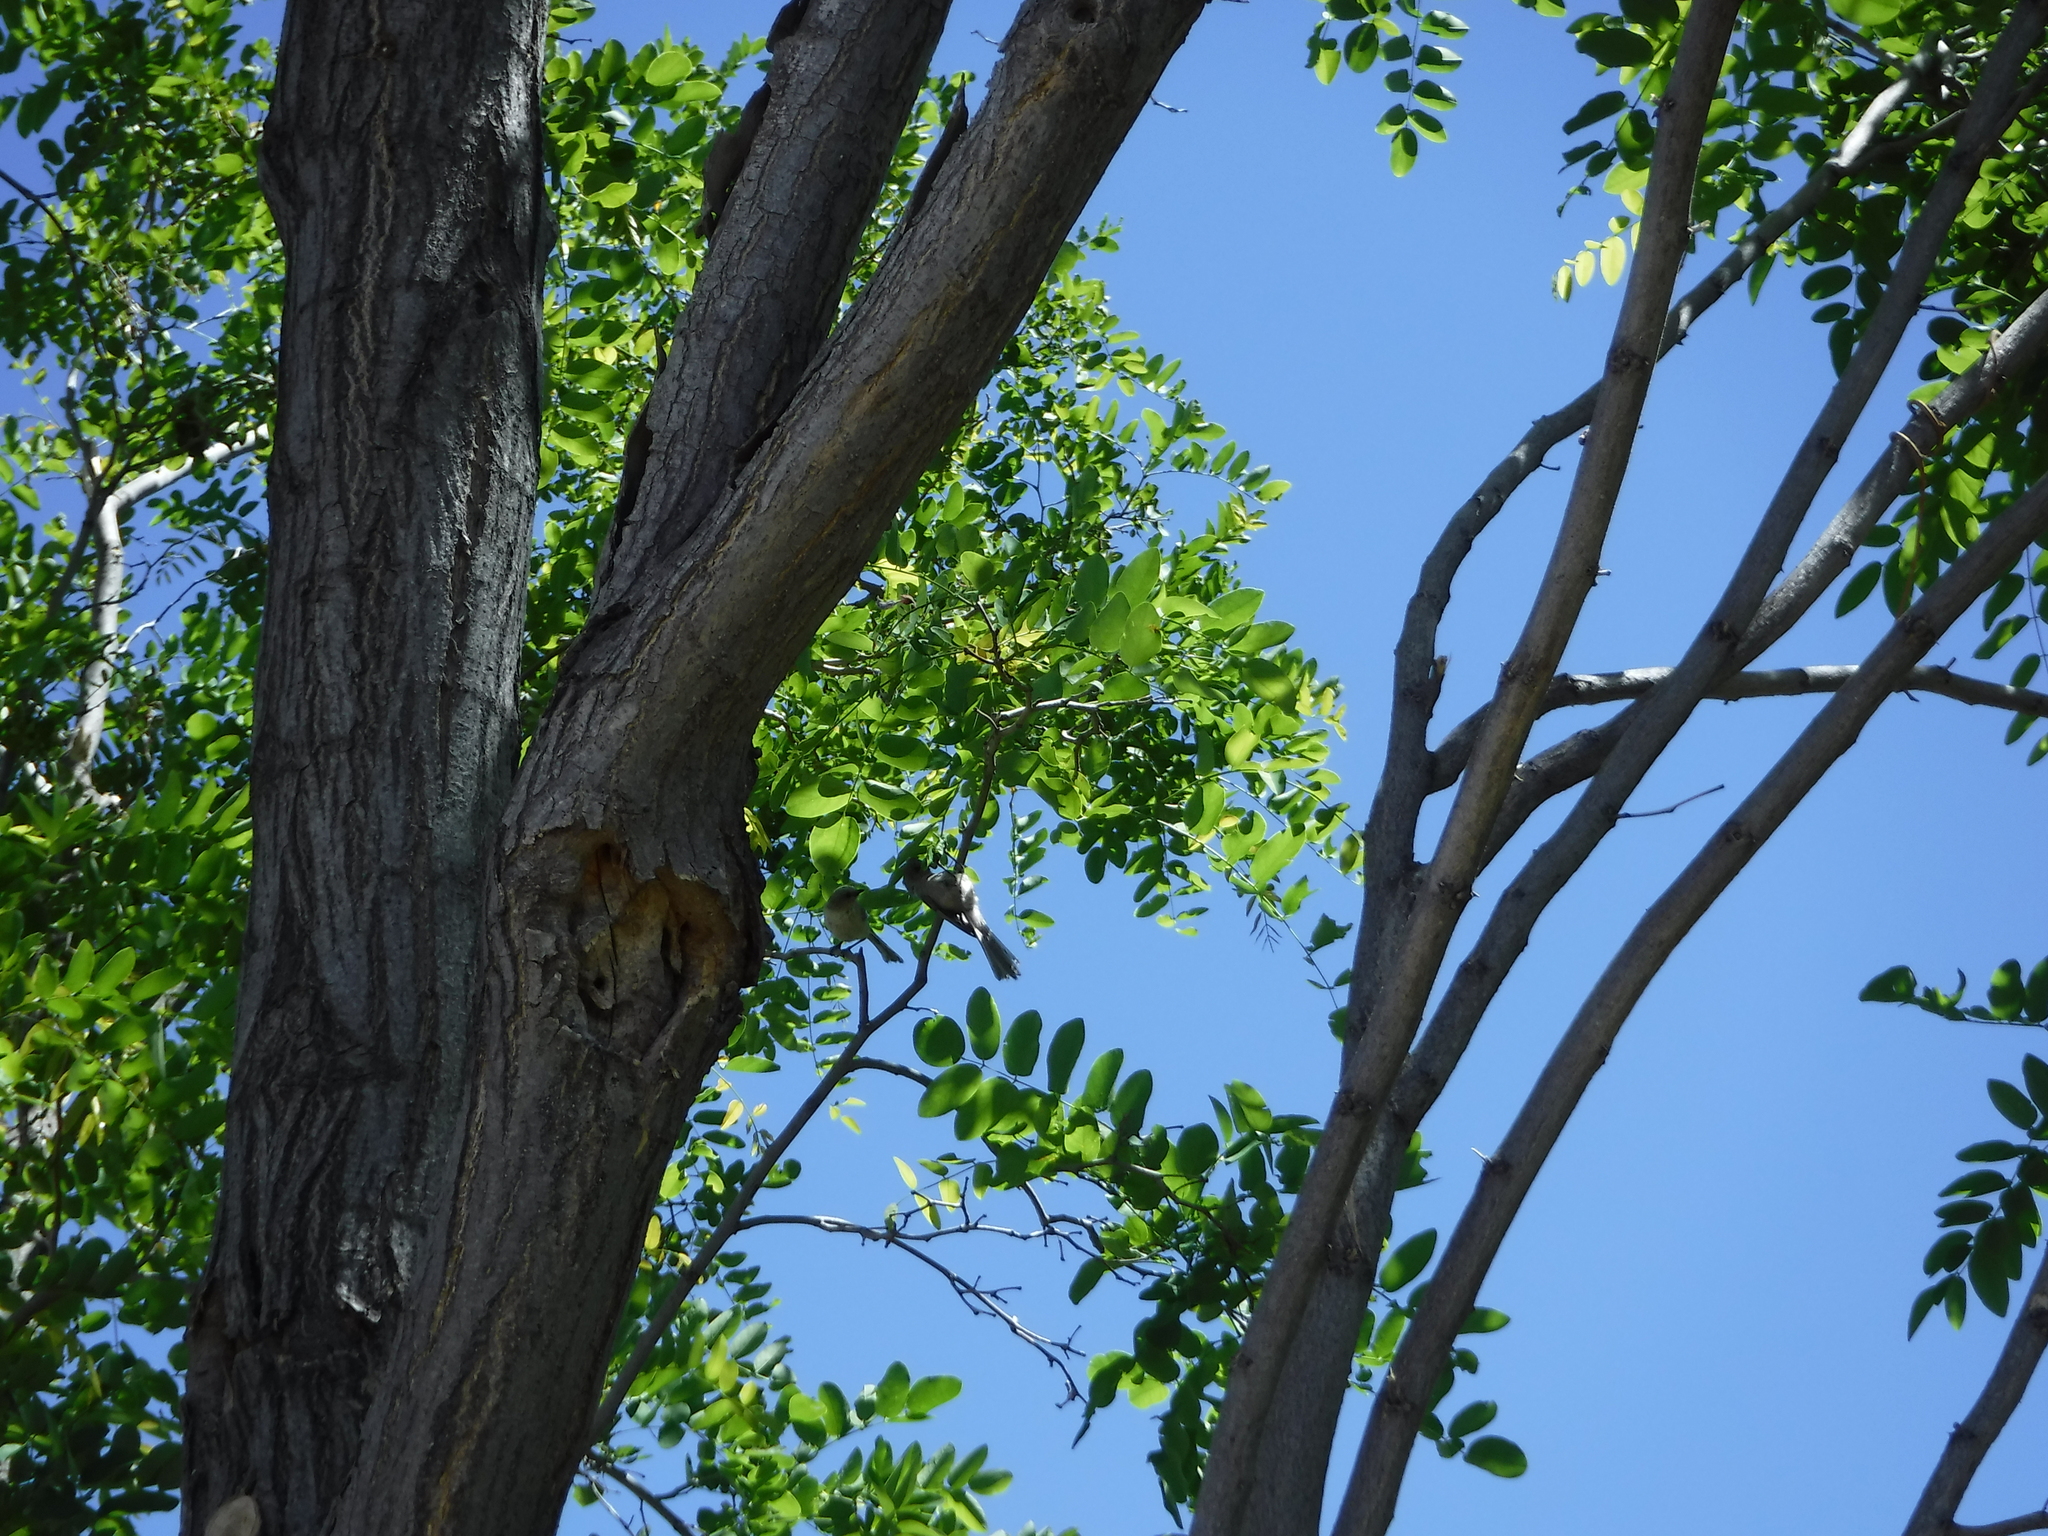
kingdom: Animalia
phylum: Chordata
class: Aves
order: Passeriformes
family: Aegithalidae
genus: Psaltriparus
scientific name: Psaltriparus minimus
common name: American bushtit
